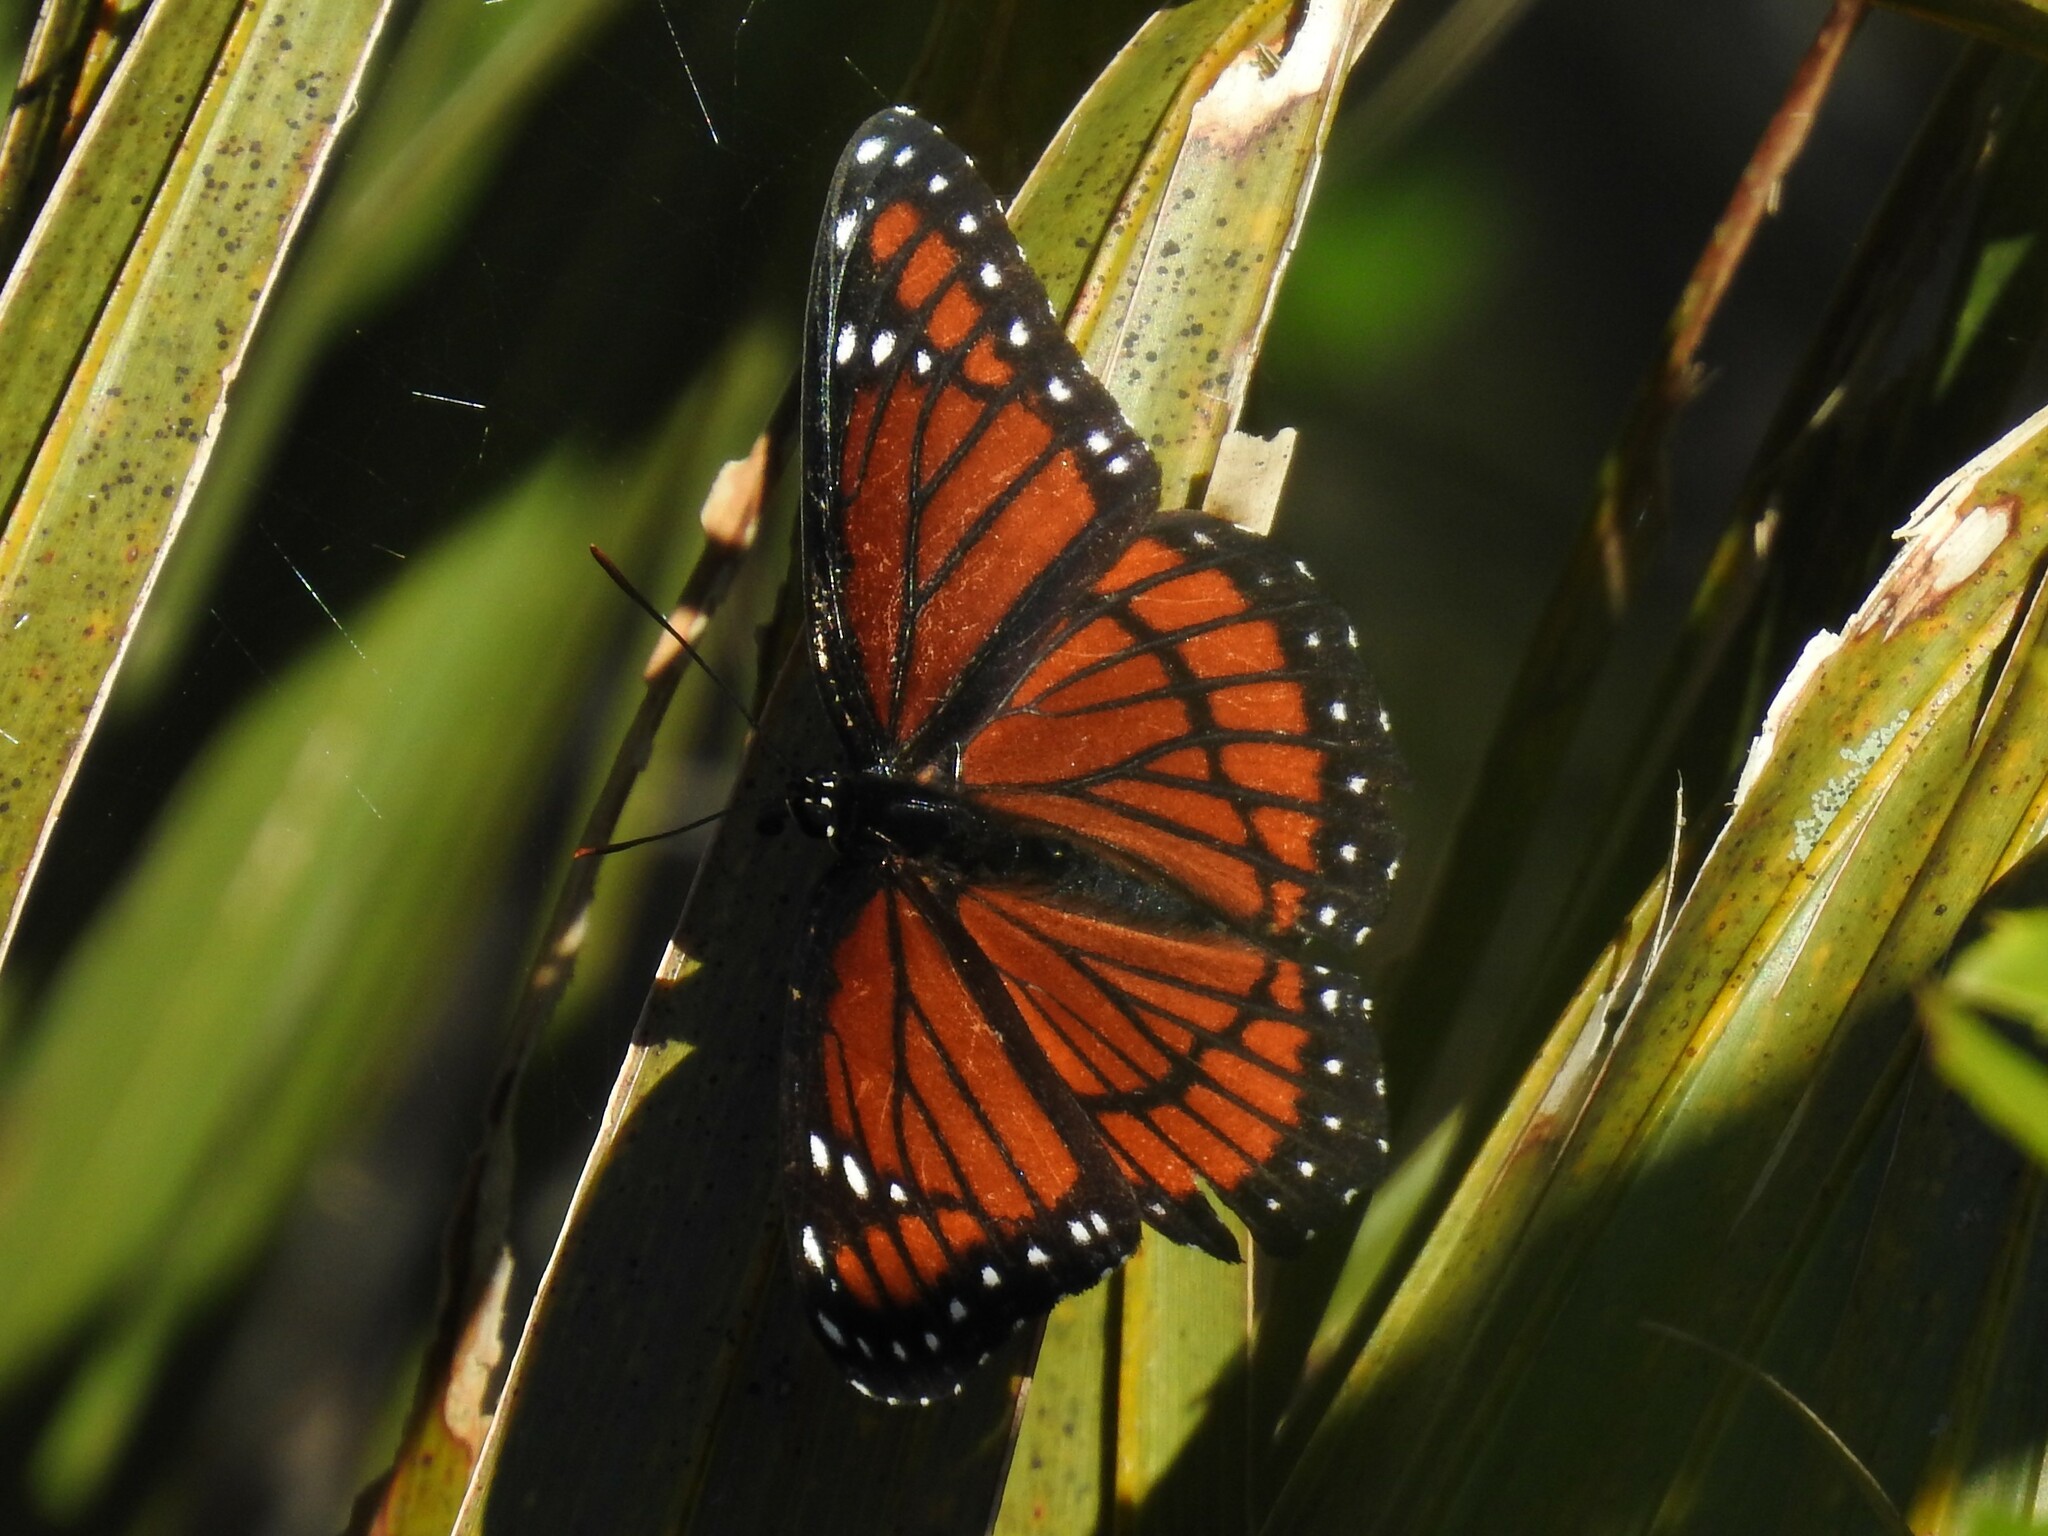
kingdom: Animalia
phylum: Arthropoda
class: Insecta
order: Lepidoptera
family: Nymphalidae
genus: Limenitis
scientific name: Limenitis archippus
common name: Viceroy
